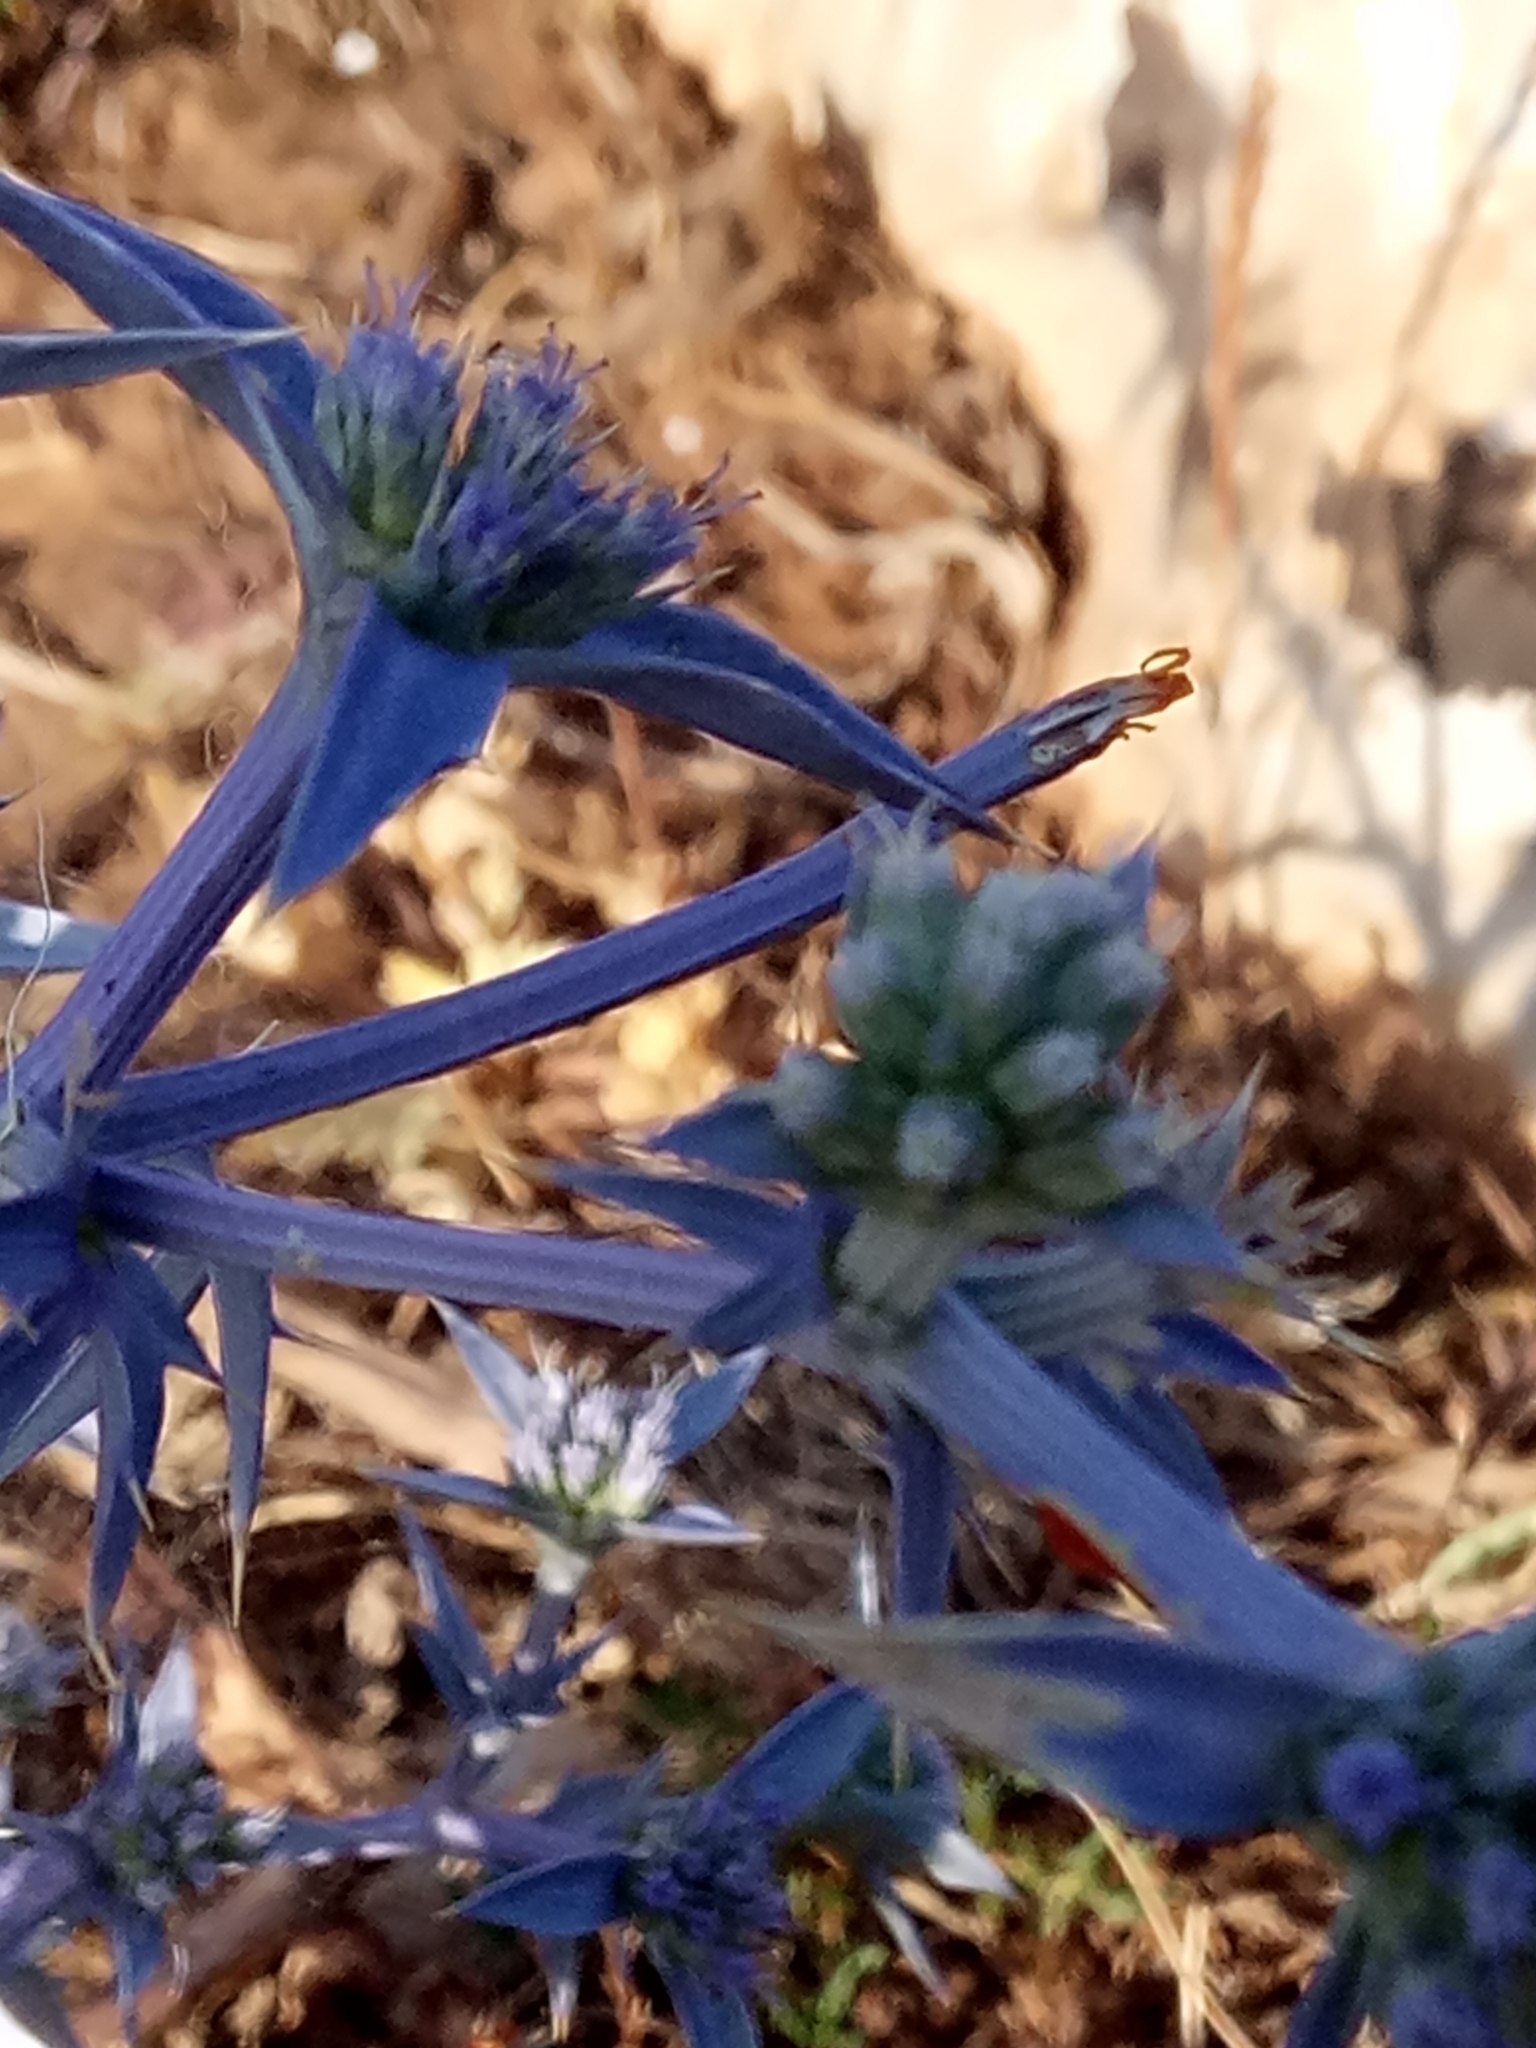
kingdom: Plantae
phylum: Tracheophyta
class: Magnoliopsida
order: Apiales
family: Apiaceae
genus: Eryngium
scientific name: Eryngium triquetrum
